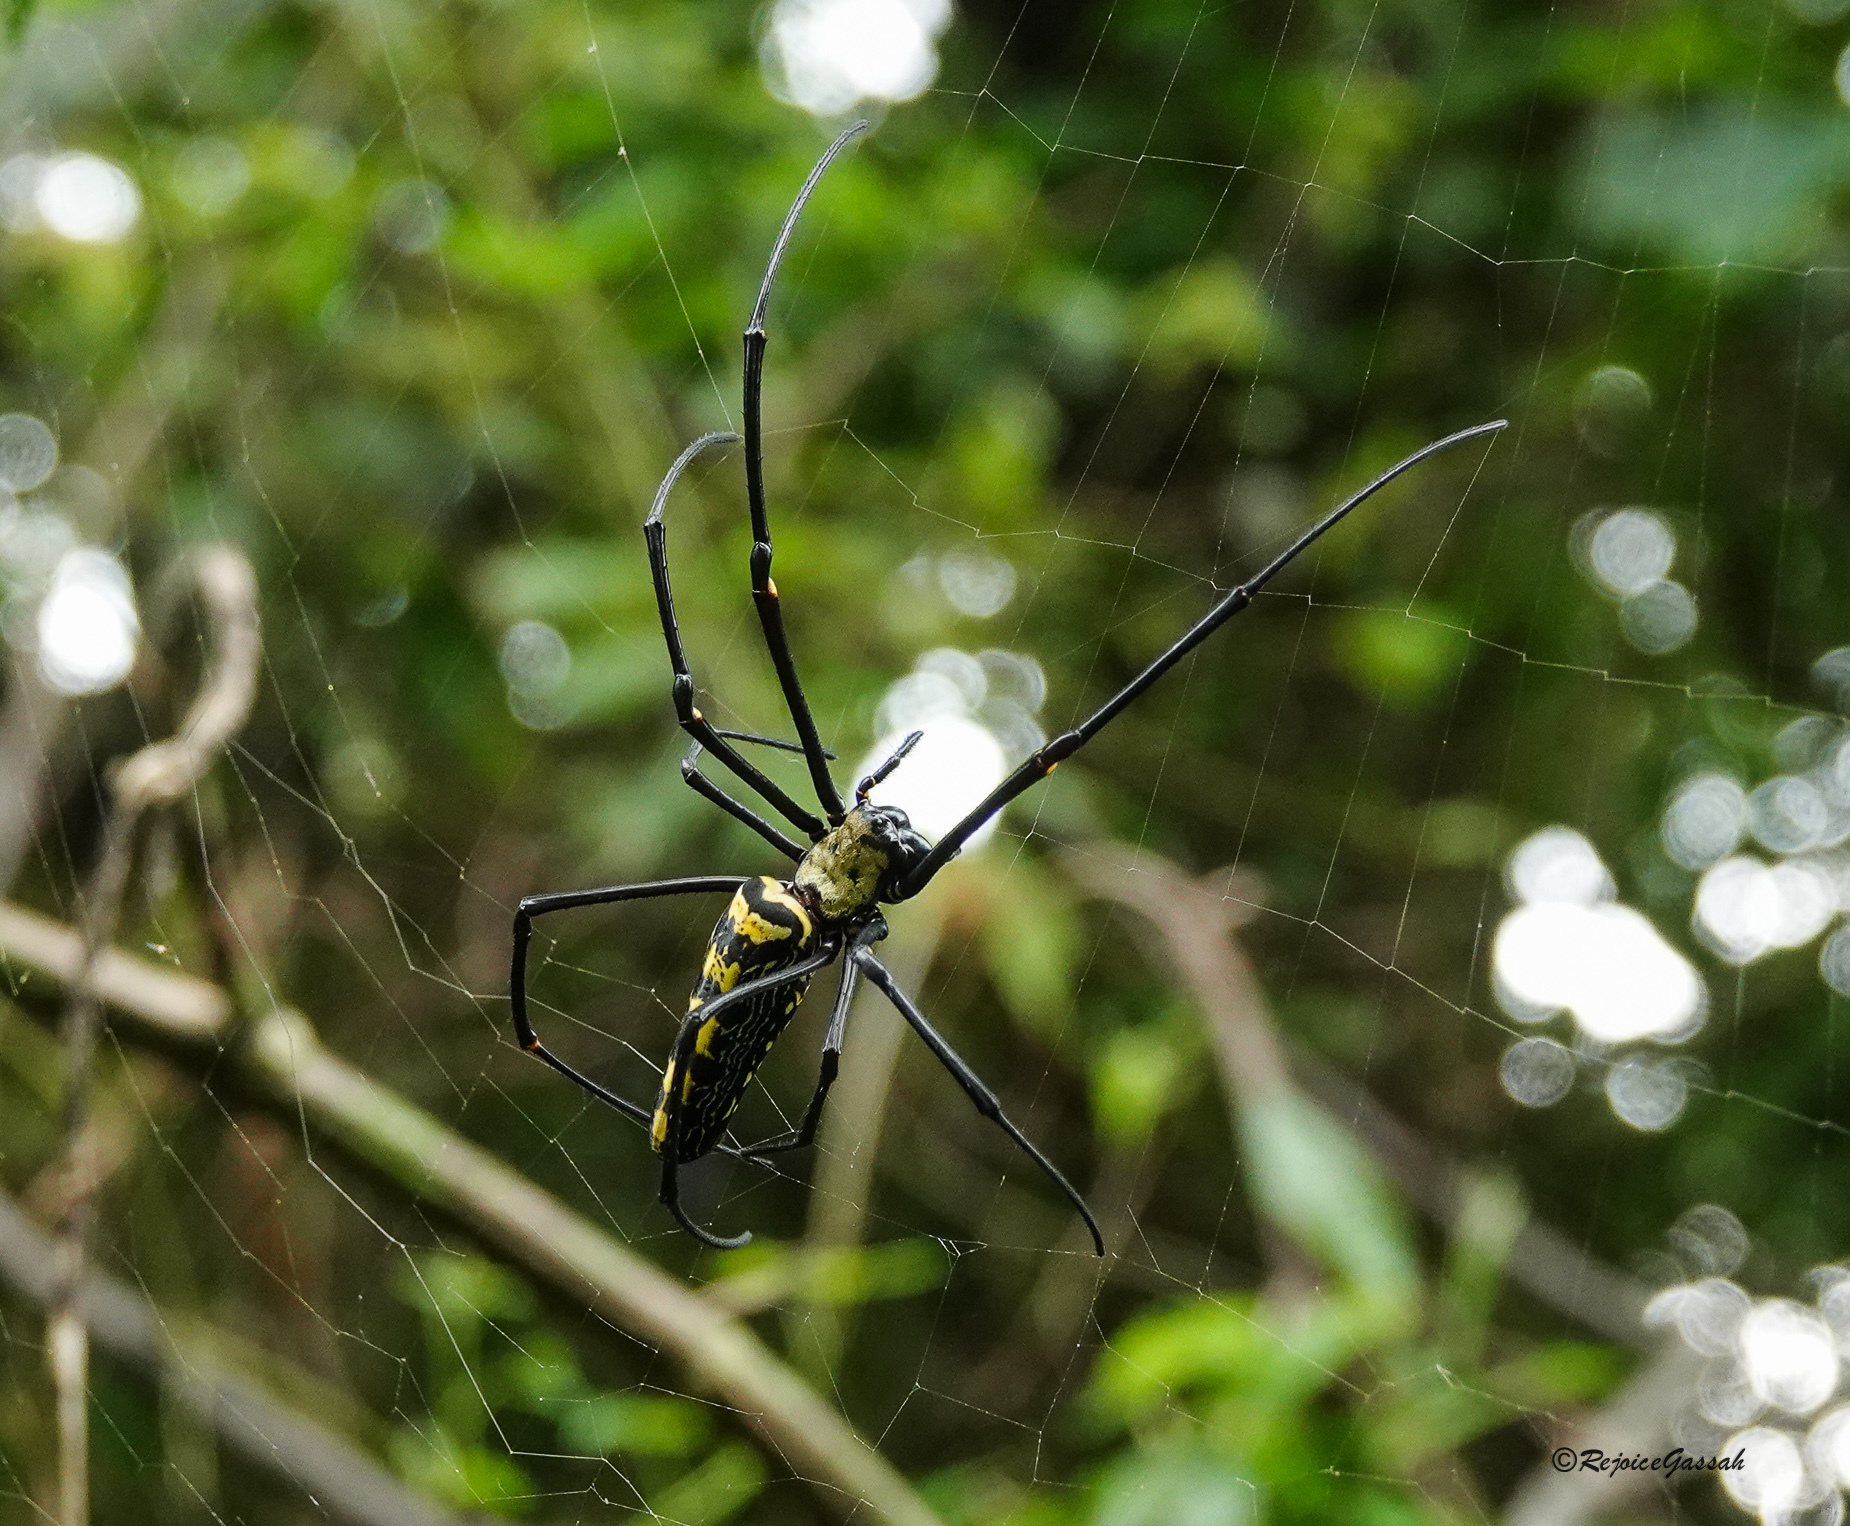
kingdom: Animalia
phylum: Arthropoda
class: Arachnida
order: Araneae
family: Araneidae
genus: Nephila
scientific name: Nephila pilipes
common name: Giant golden orb weaver
